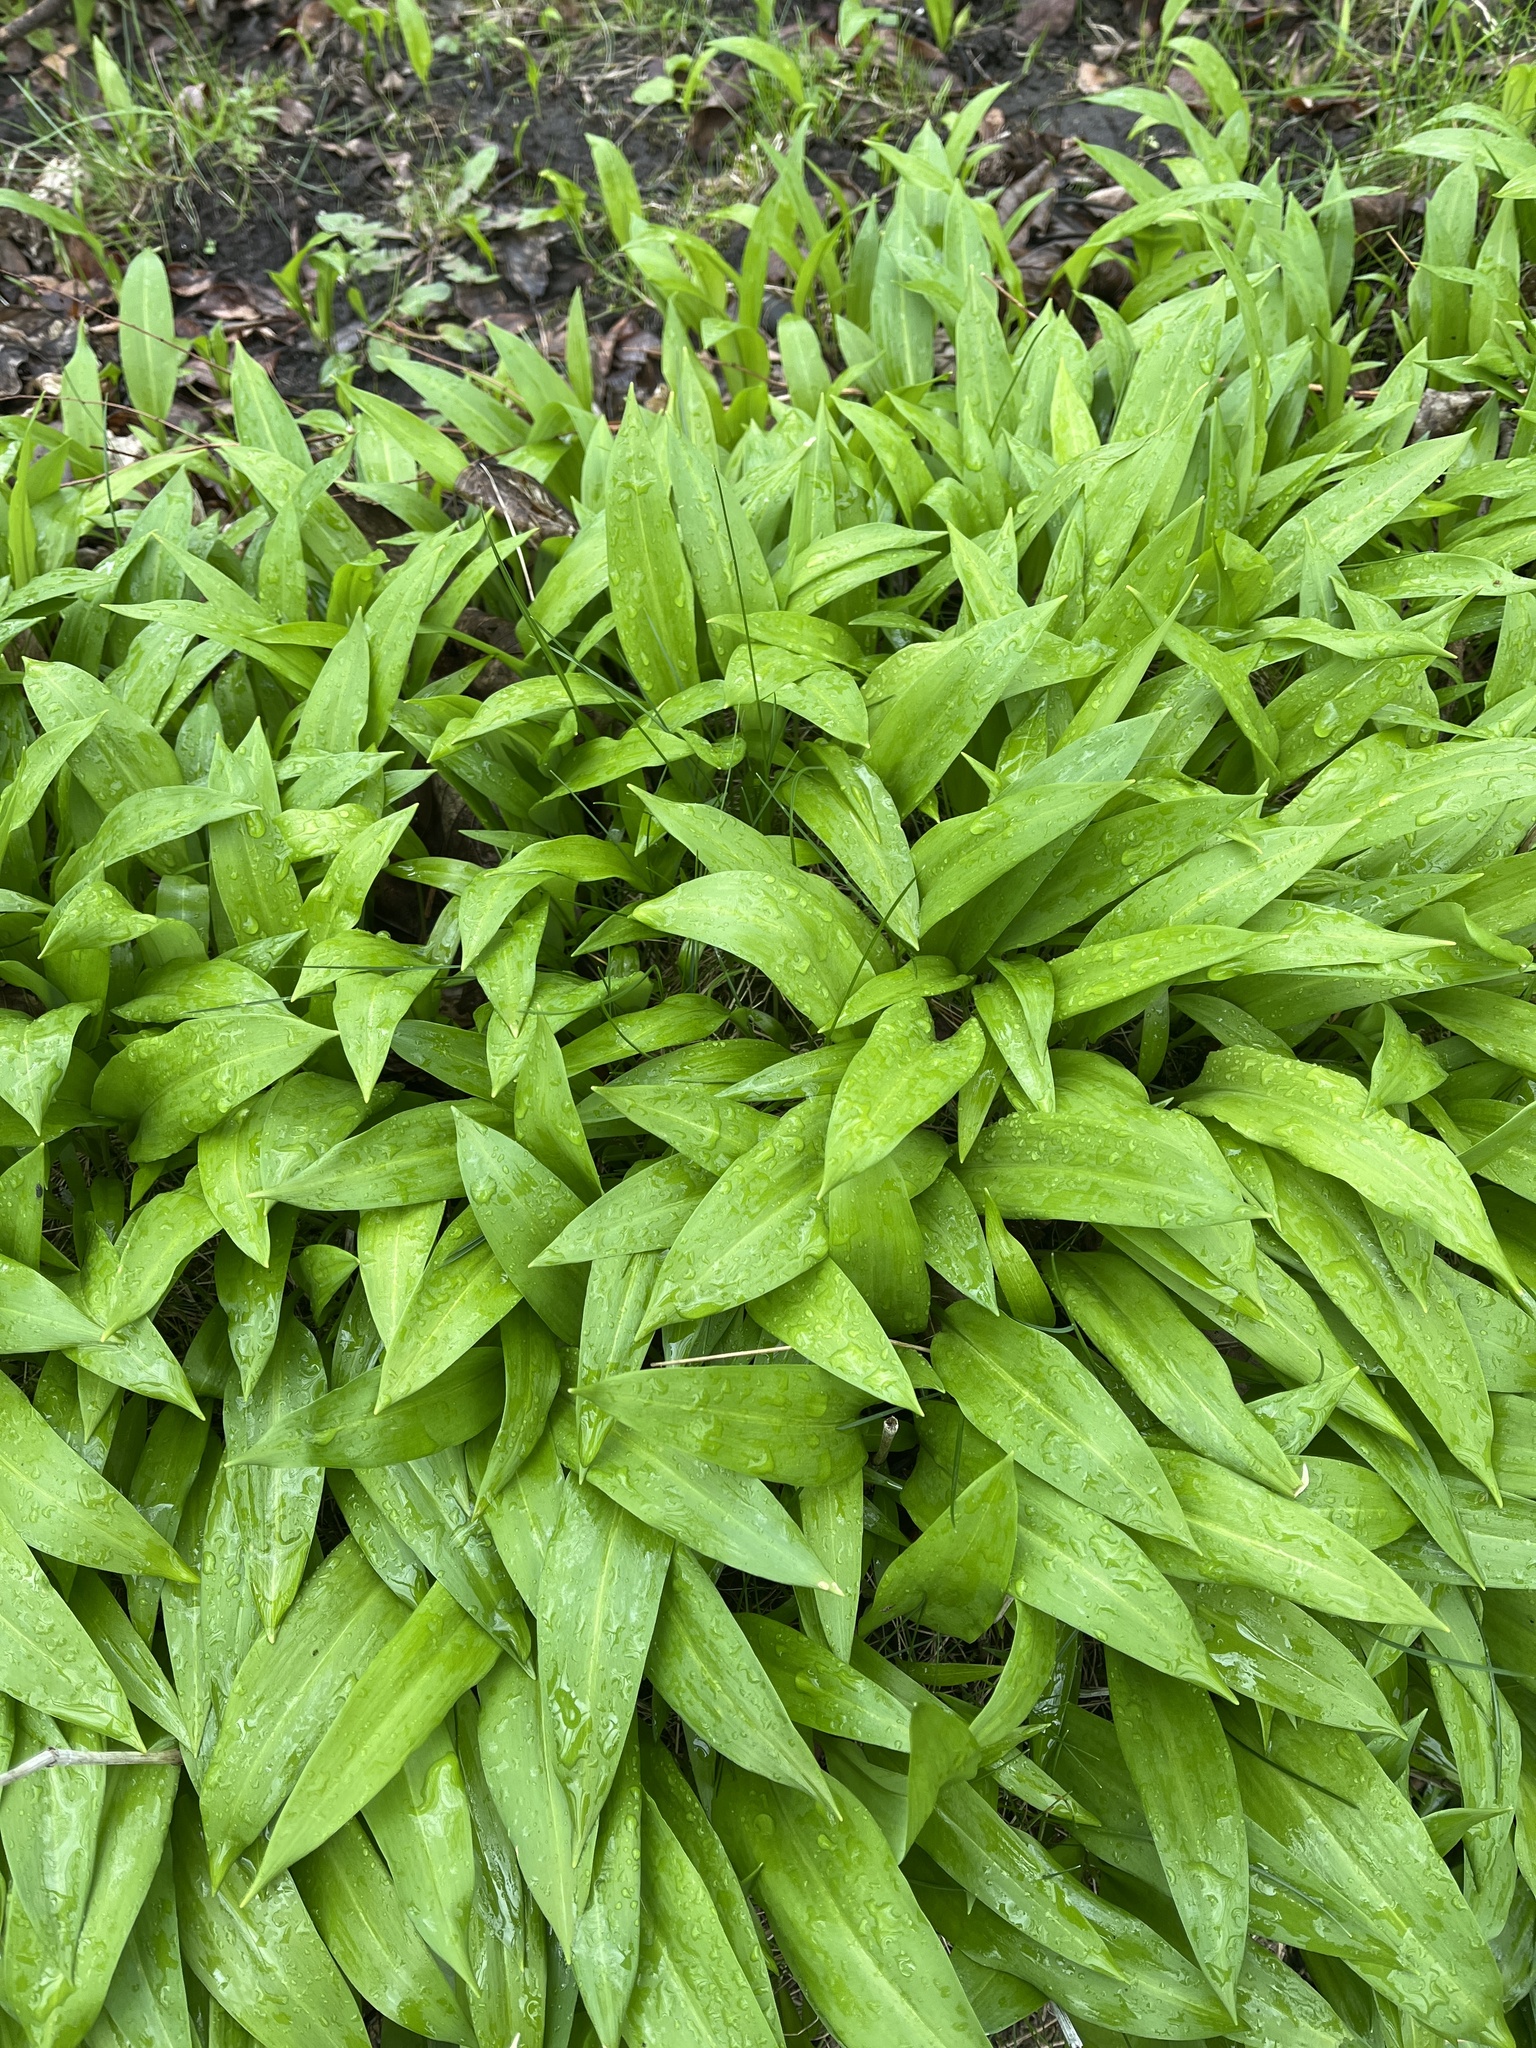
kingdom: Plantae
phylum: Tracheophyta
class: Liliopsida
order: Asparagales
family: Amaryllidaceae
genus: Allium
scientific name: Allium ursinum
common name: Ramsons
